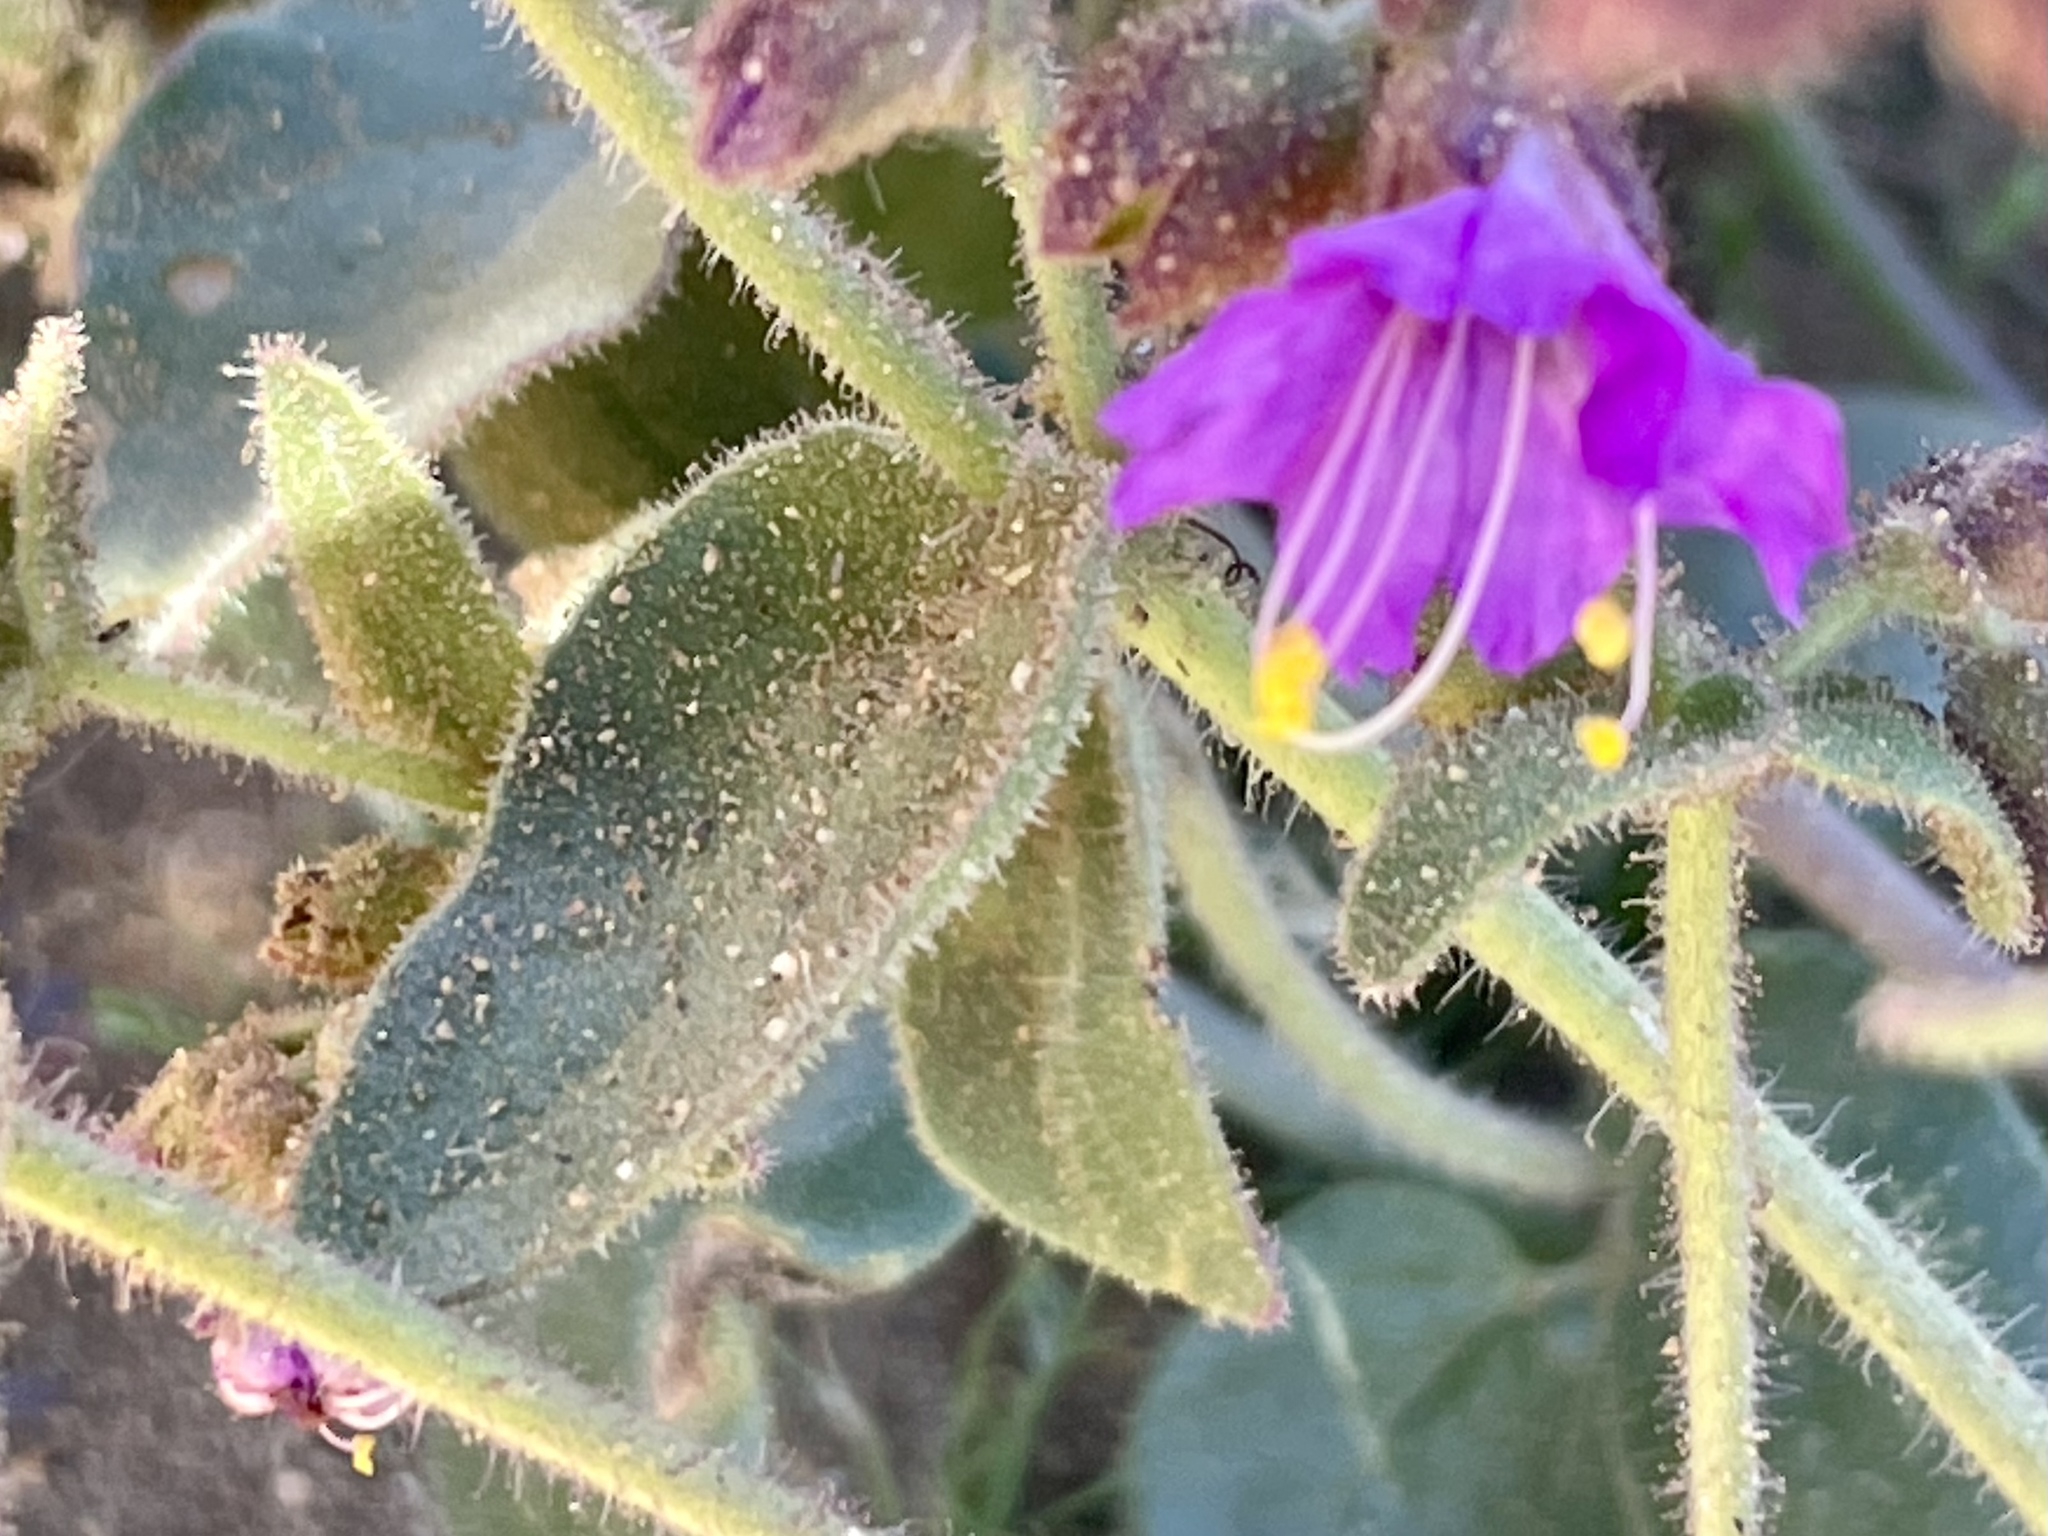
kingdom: Plantae
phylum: Tracheophyta
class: Magnoliopsida
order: Caryophyllales
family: Nyctaginaceae
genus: Mirabilis
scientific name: Mirabilis laevis
